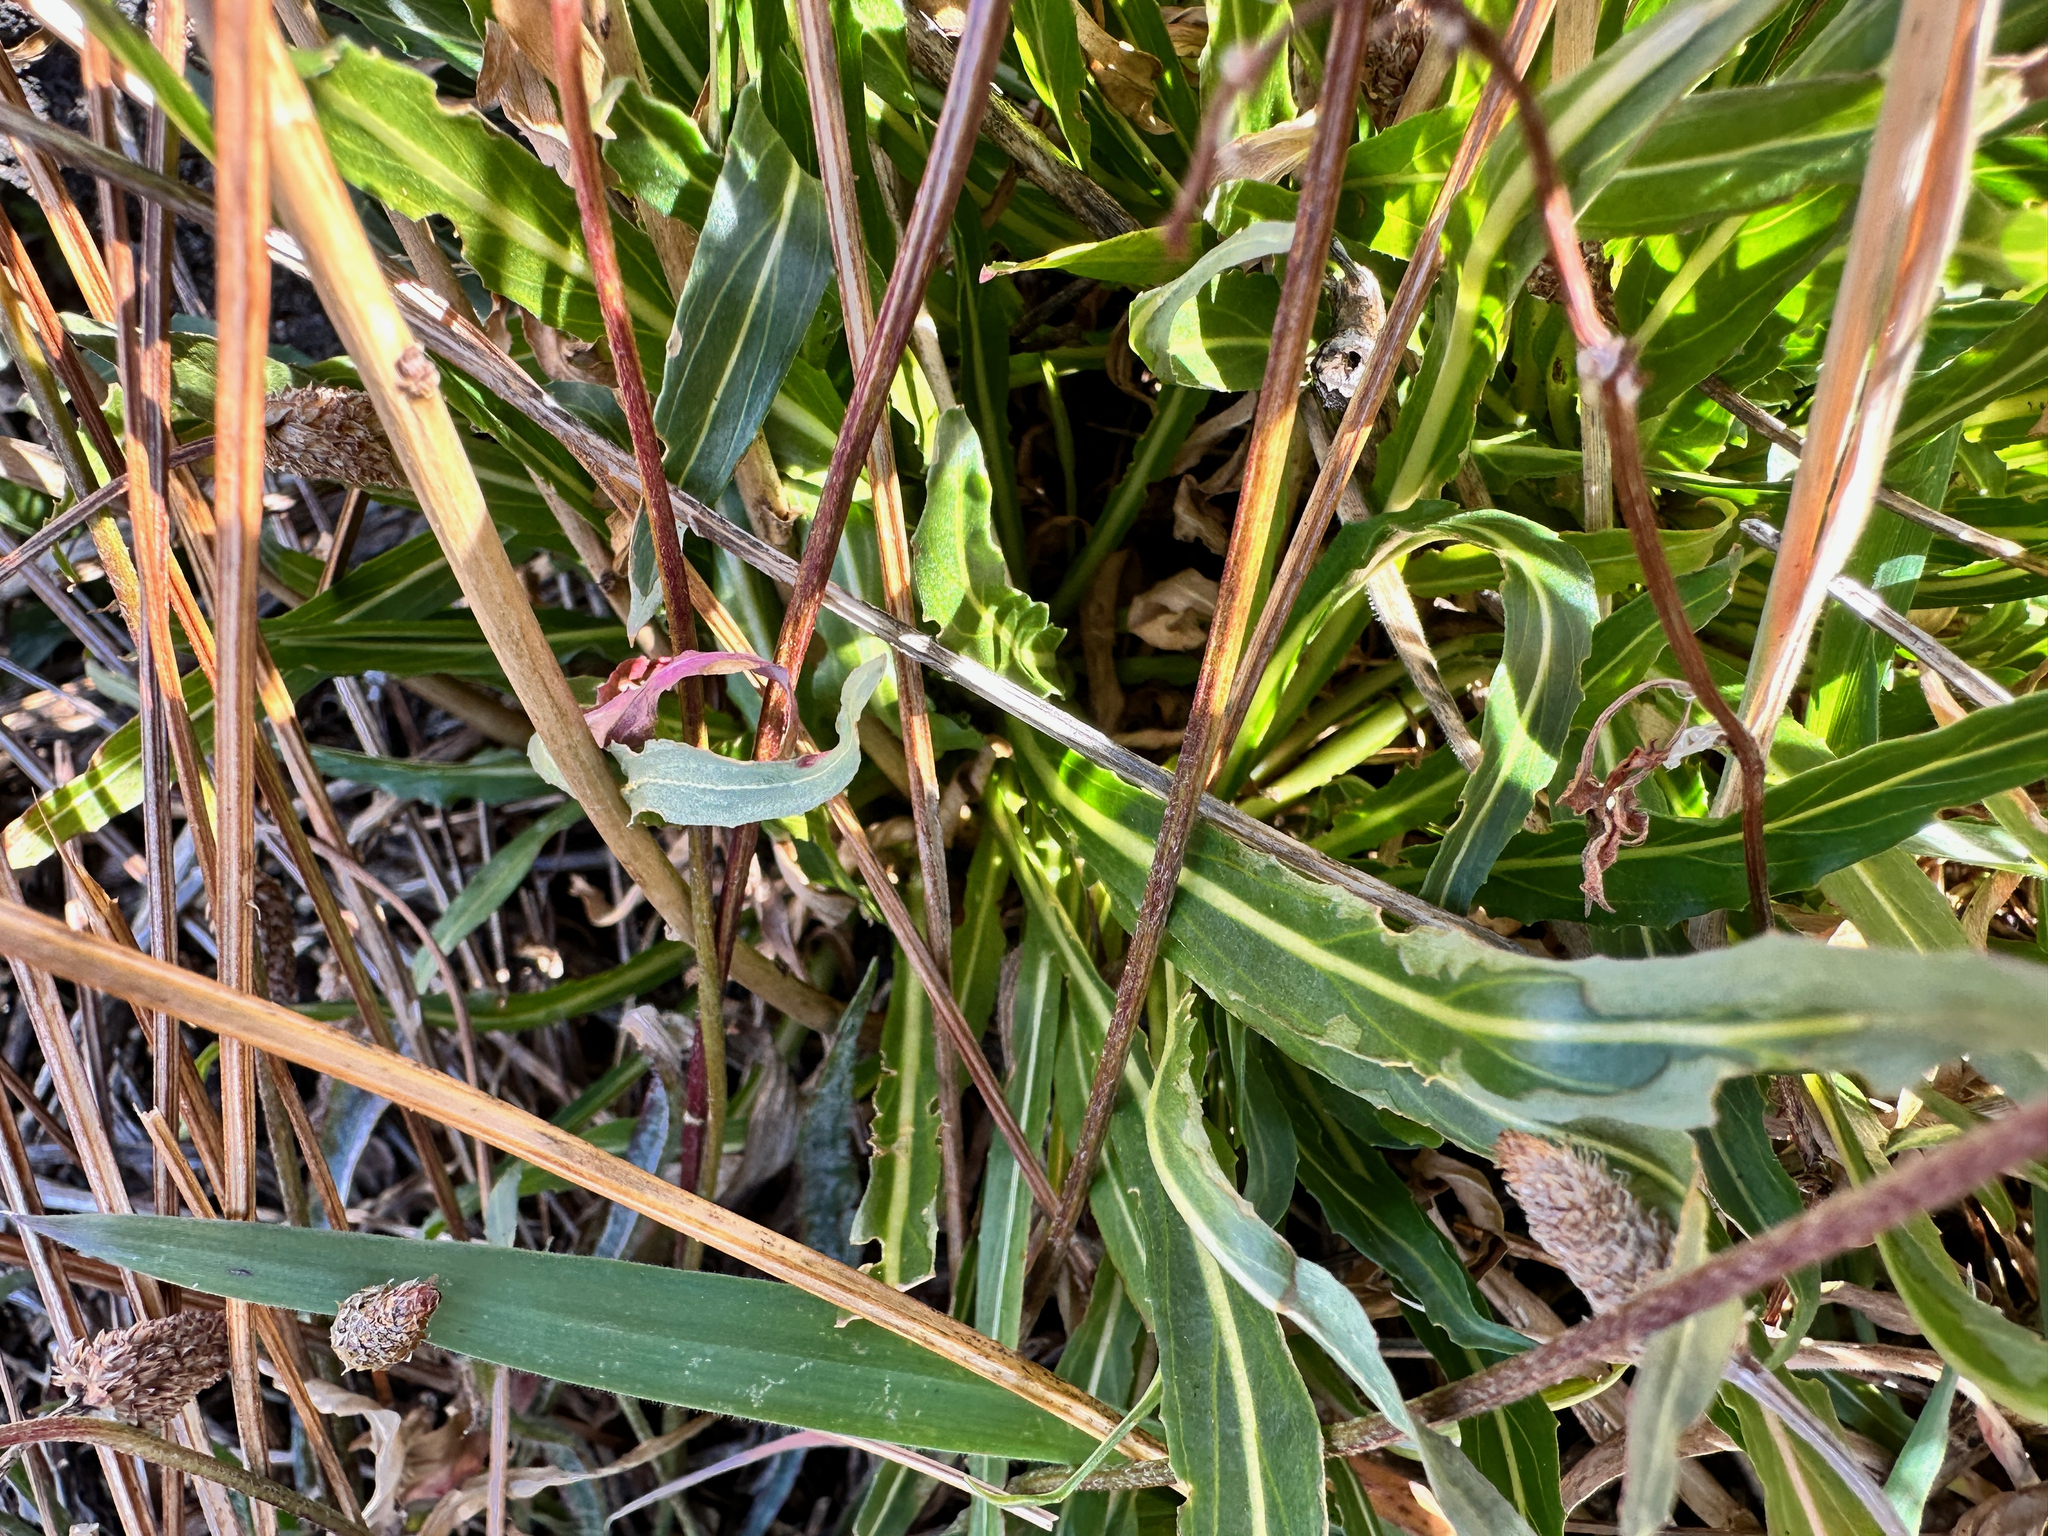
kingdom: Plantae
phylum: Tracheophyta
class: Magnoliopsida
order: Myrtales
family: Onagraceae
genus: Oenothera
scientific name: Oenothera stricta
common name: Fragrant evening-primrose
